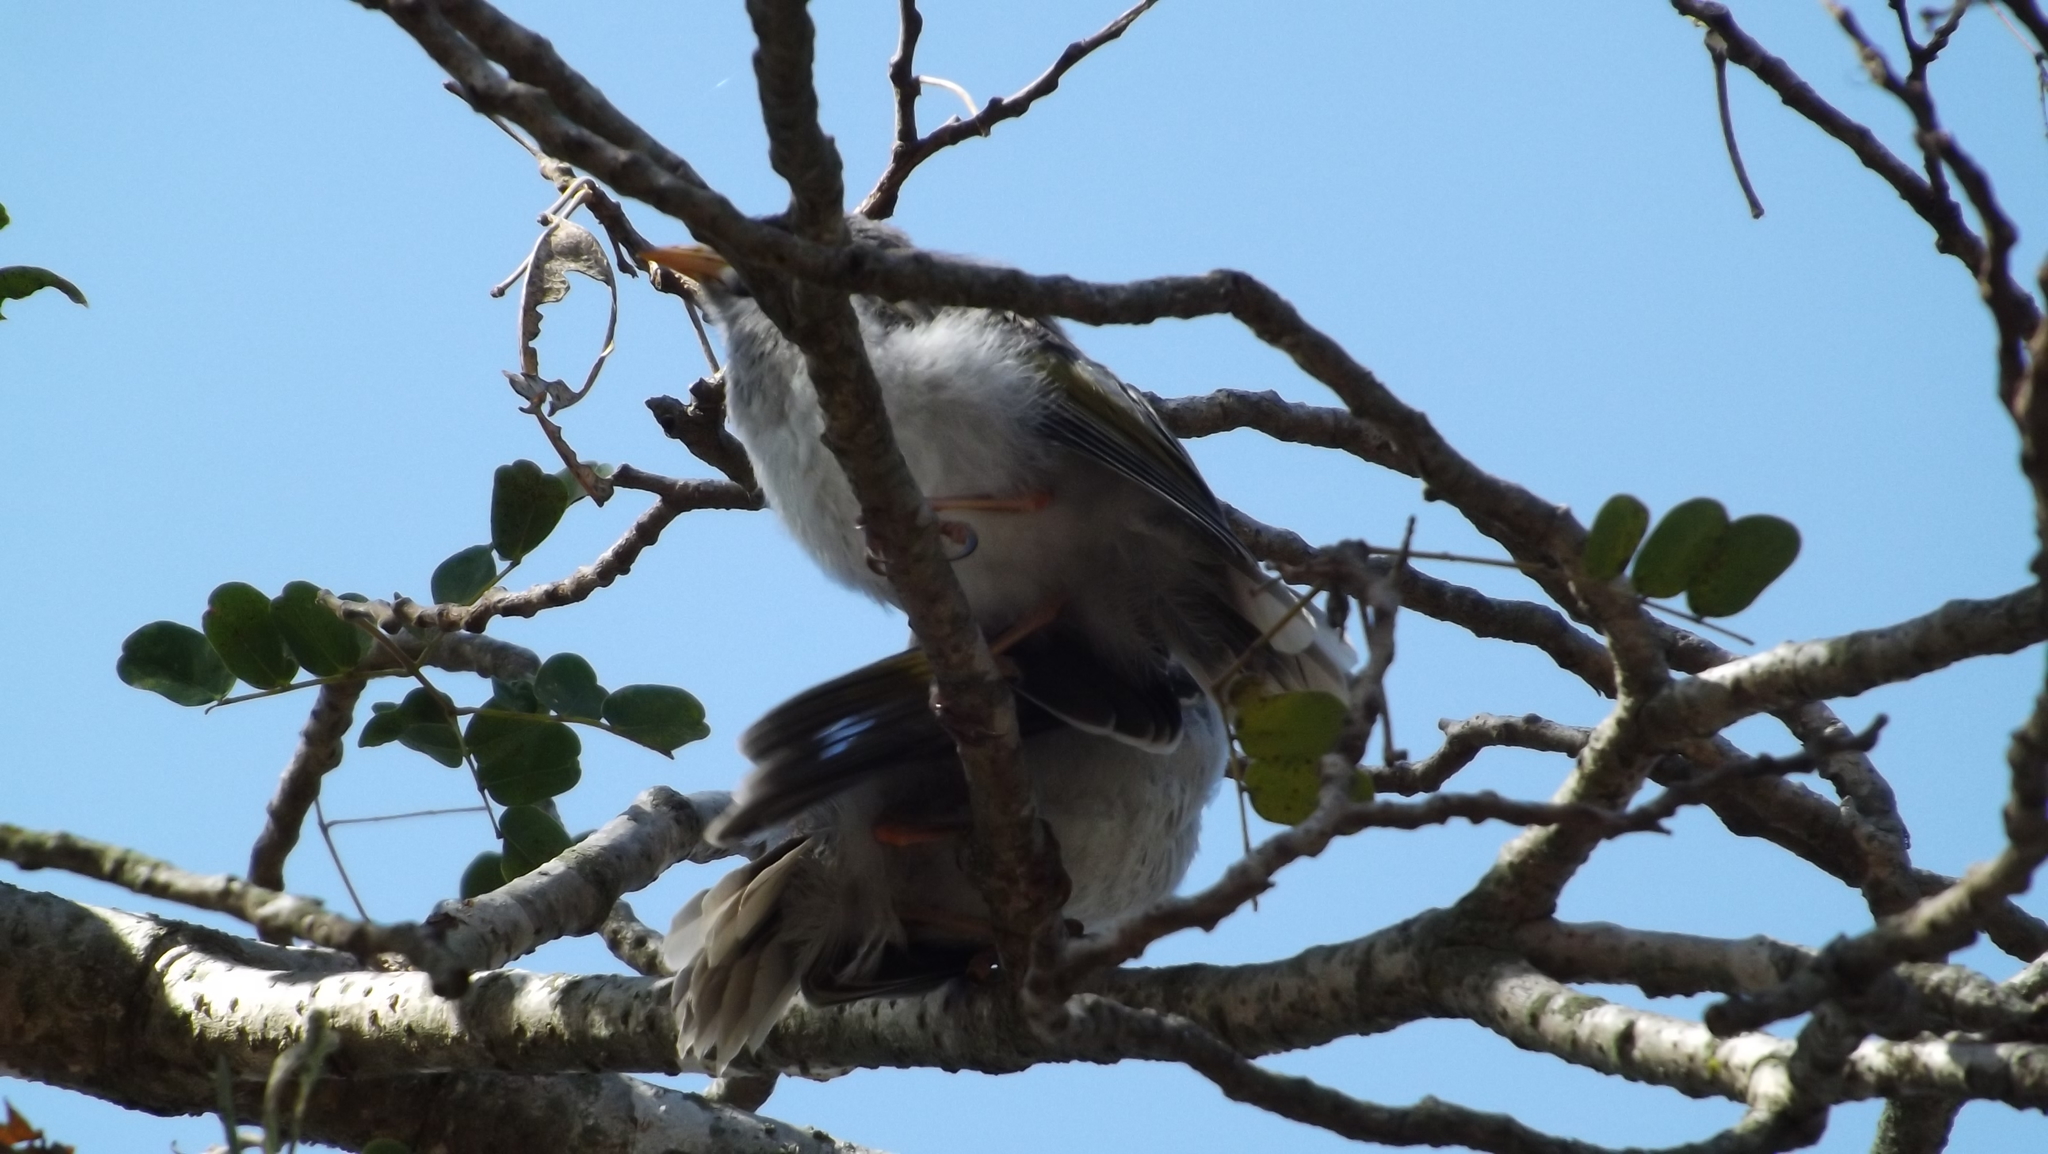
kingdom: Animalia
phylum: Chordata
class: Aves
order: Passeriformes
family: Meliphagidae
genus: Manorina
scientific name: Manorina melanocephala
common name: Noisy miner
